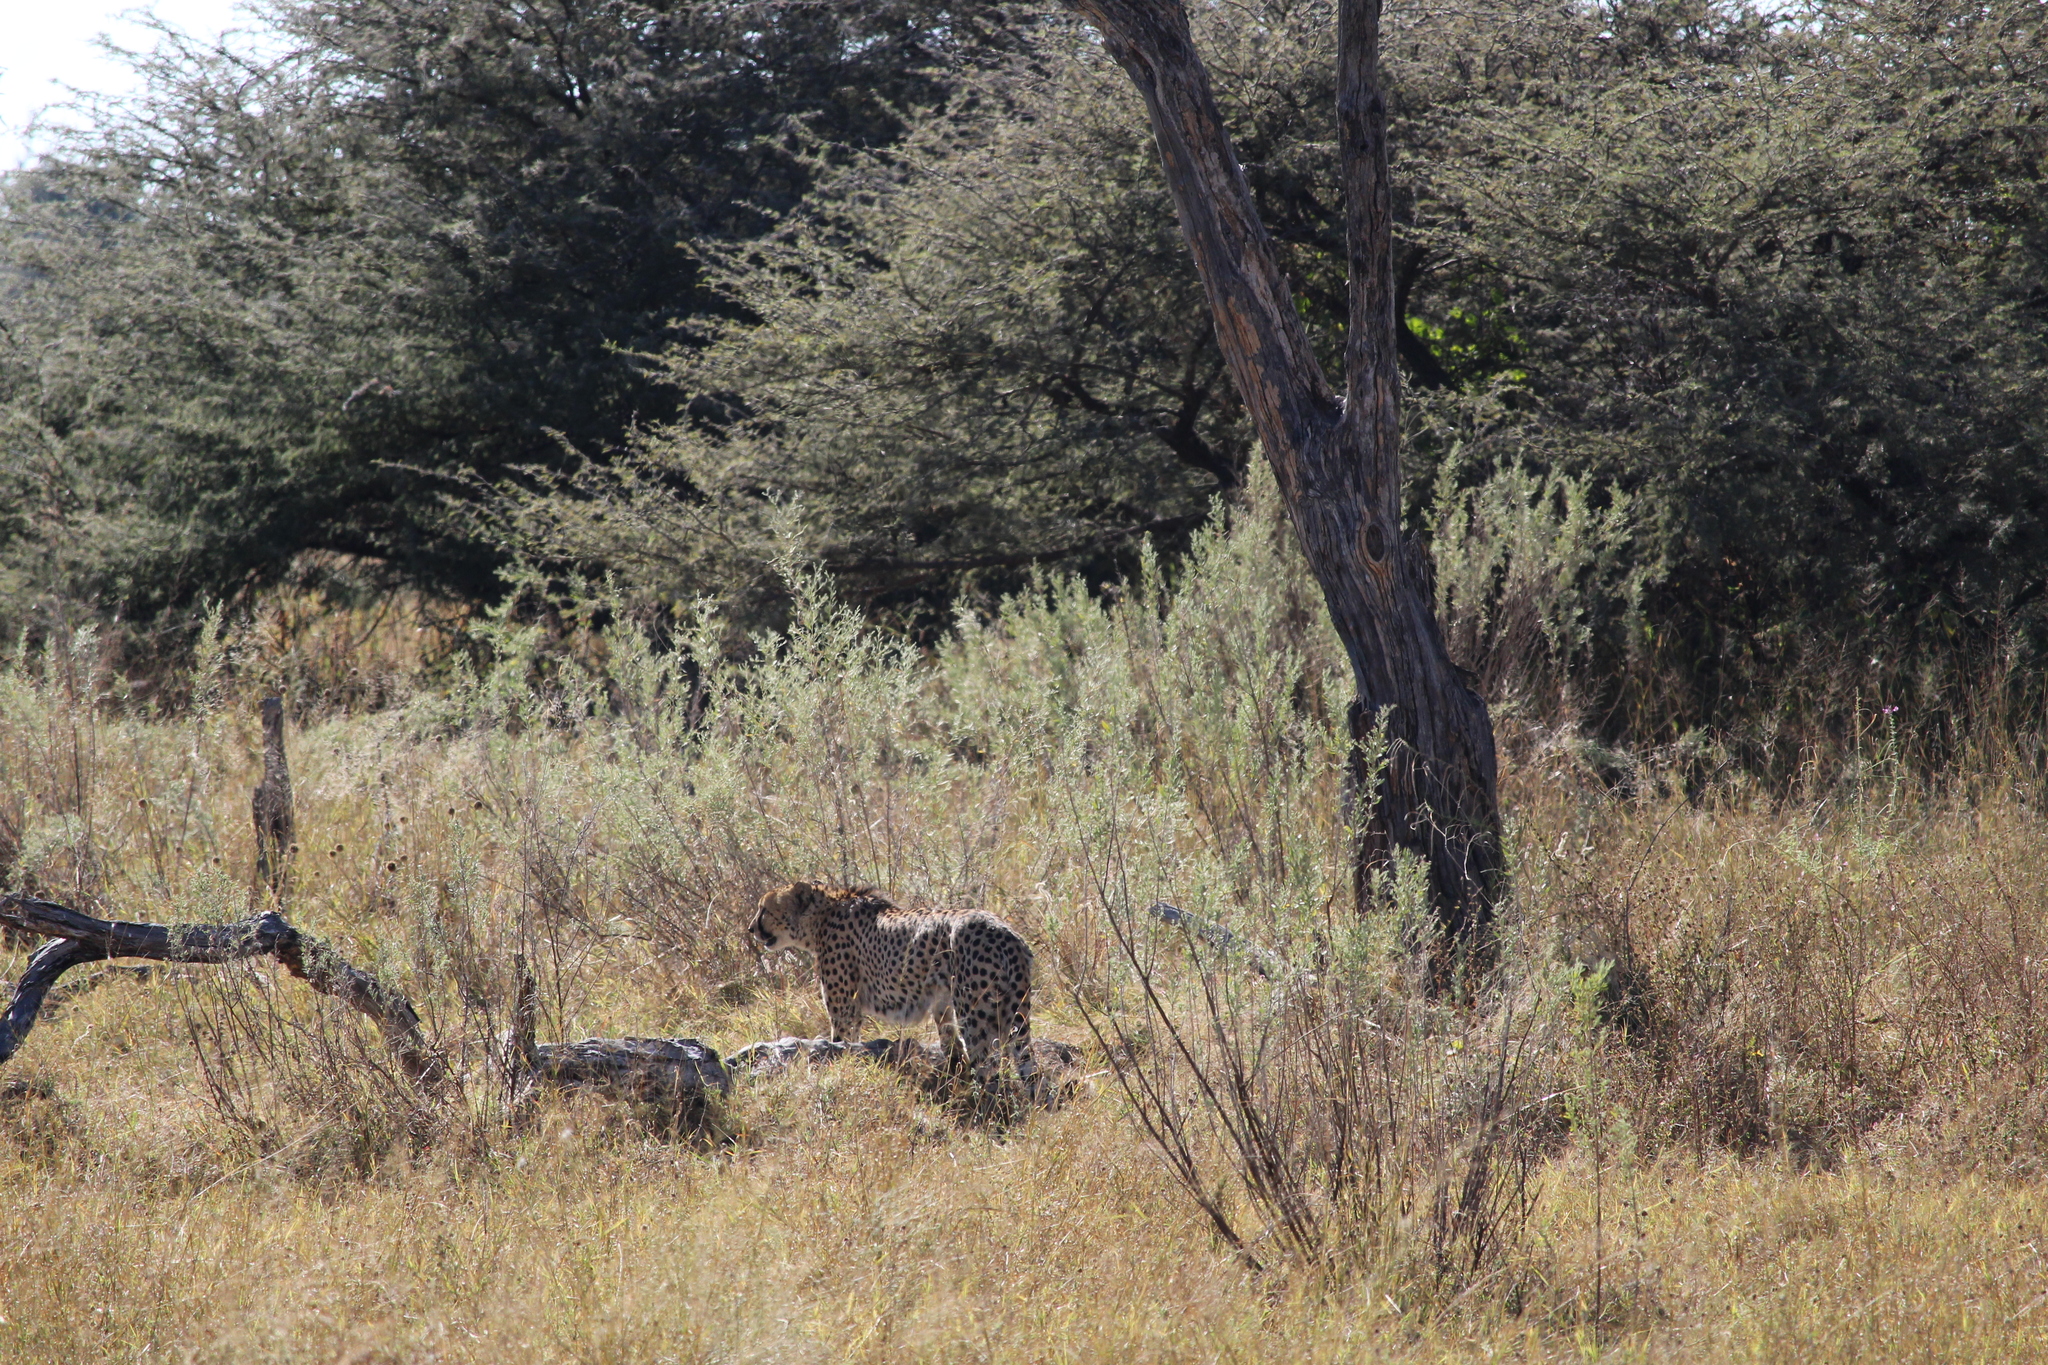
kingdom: Animalia
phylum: Chordata
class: Mammalia
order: Carnivora
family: Felidae
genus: Acinonyx
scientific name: Acinonyx jubatus
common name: Cheetah
